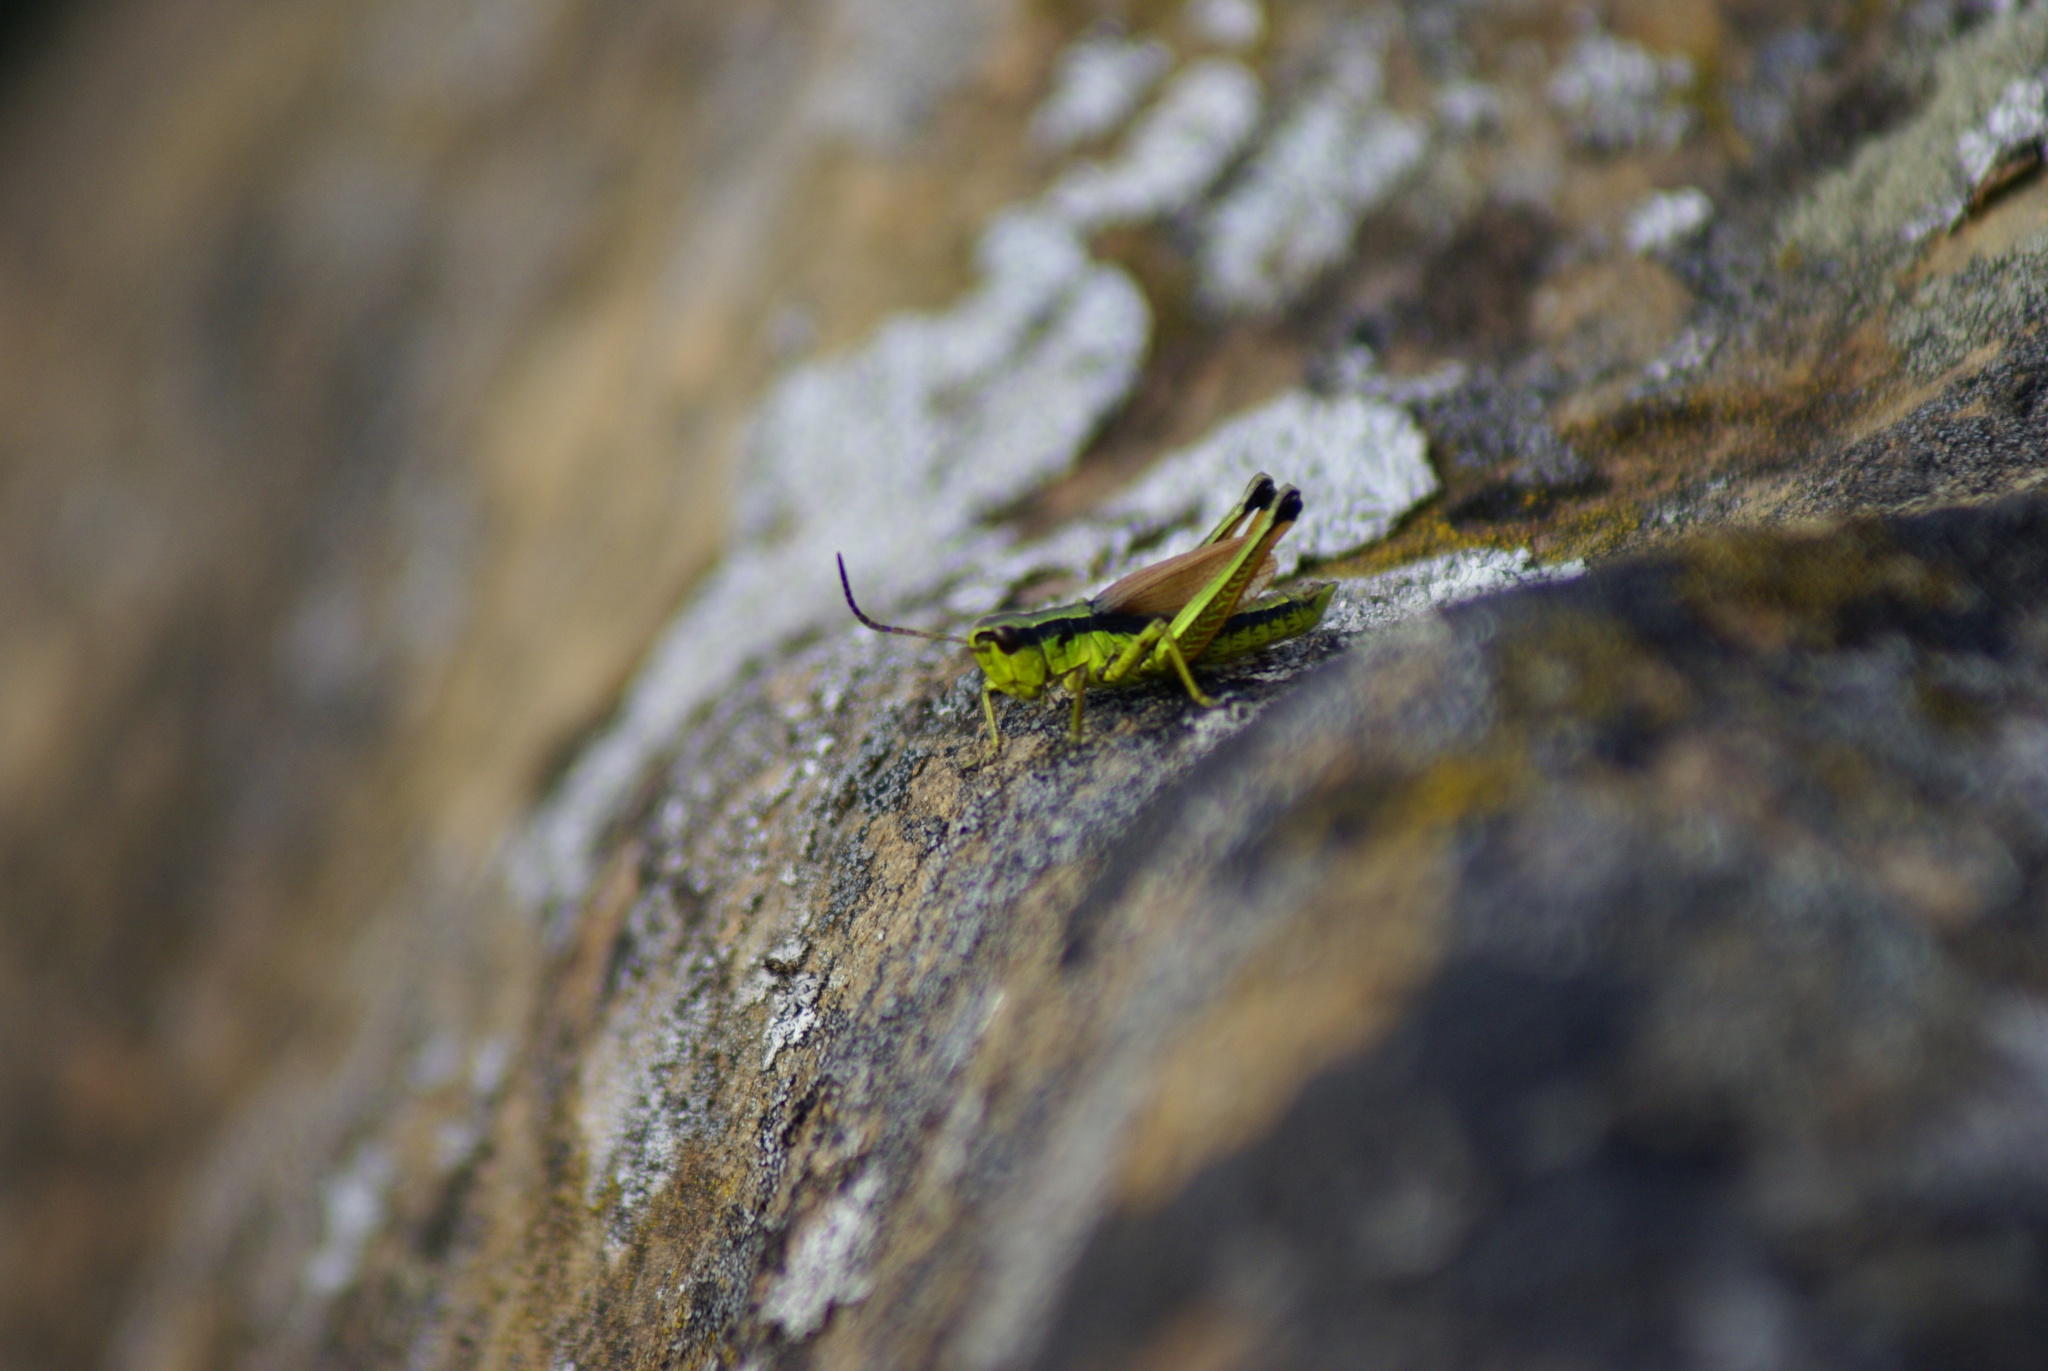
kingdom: Animalia
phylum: Arthropoda
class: Insecta
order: Orthoptera
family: Acrididae
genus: Podismopsis
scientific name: Podismopsis poppiusi
